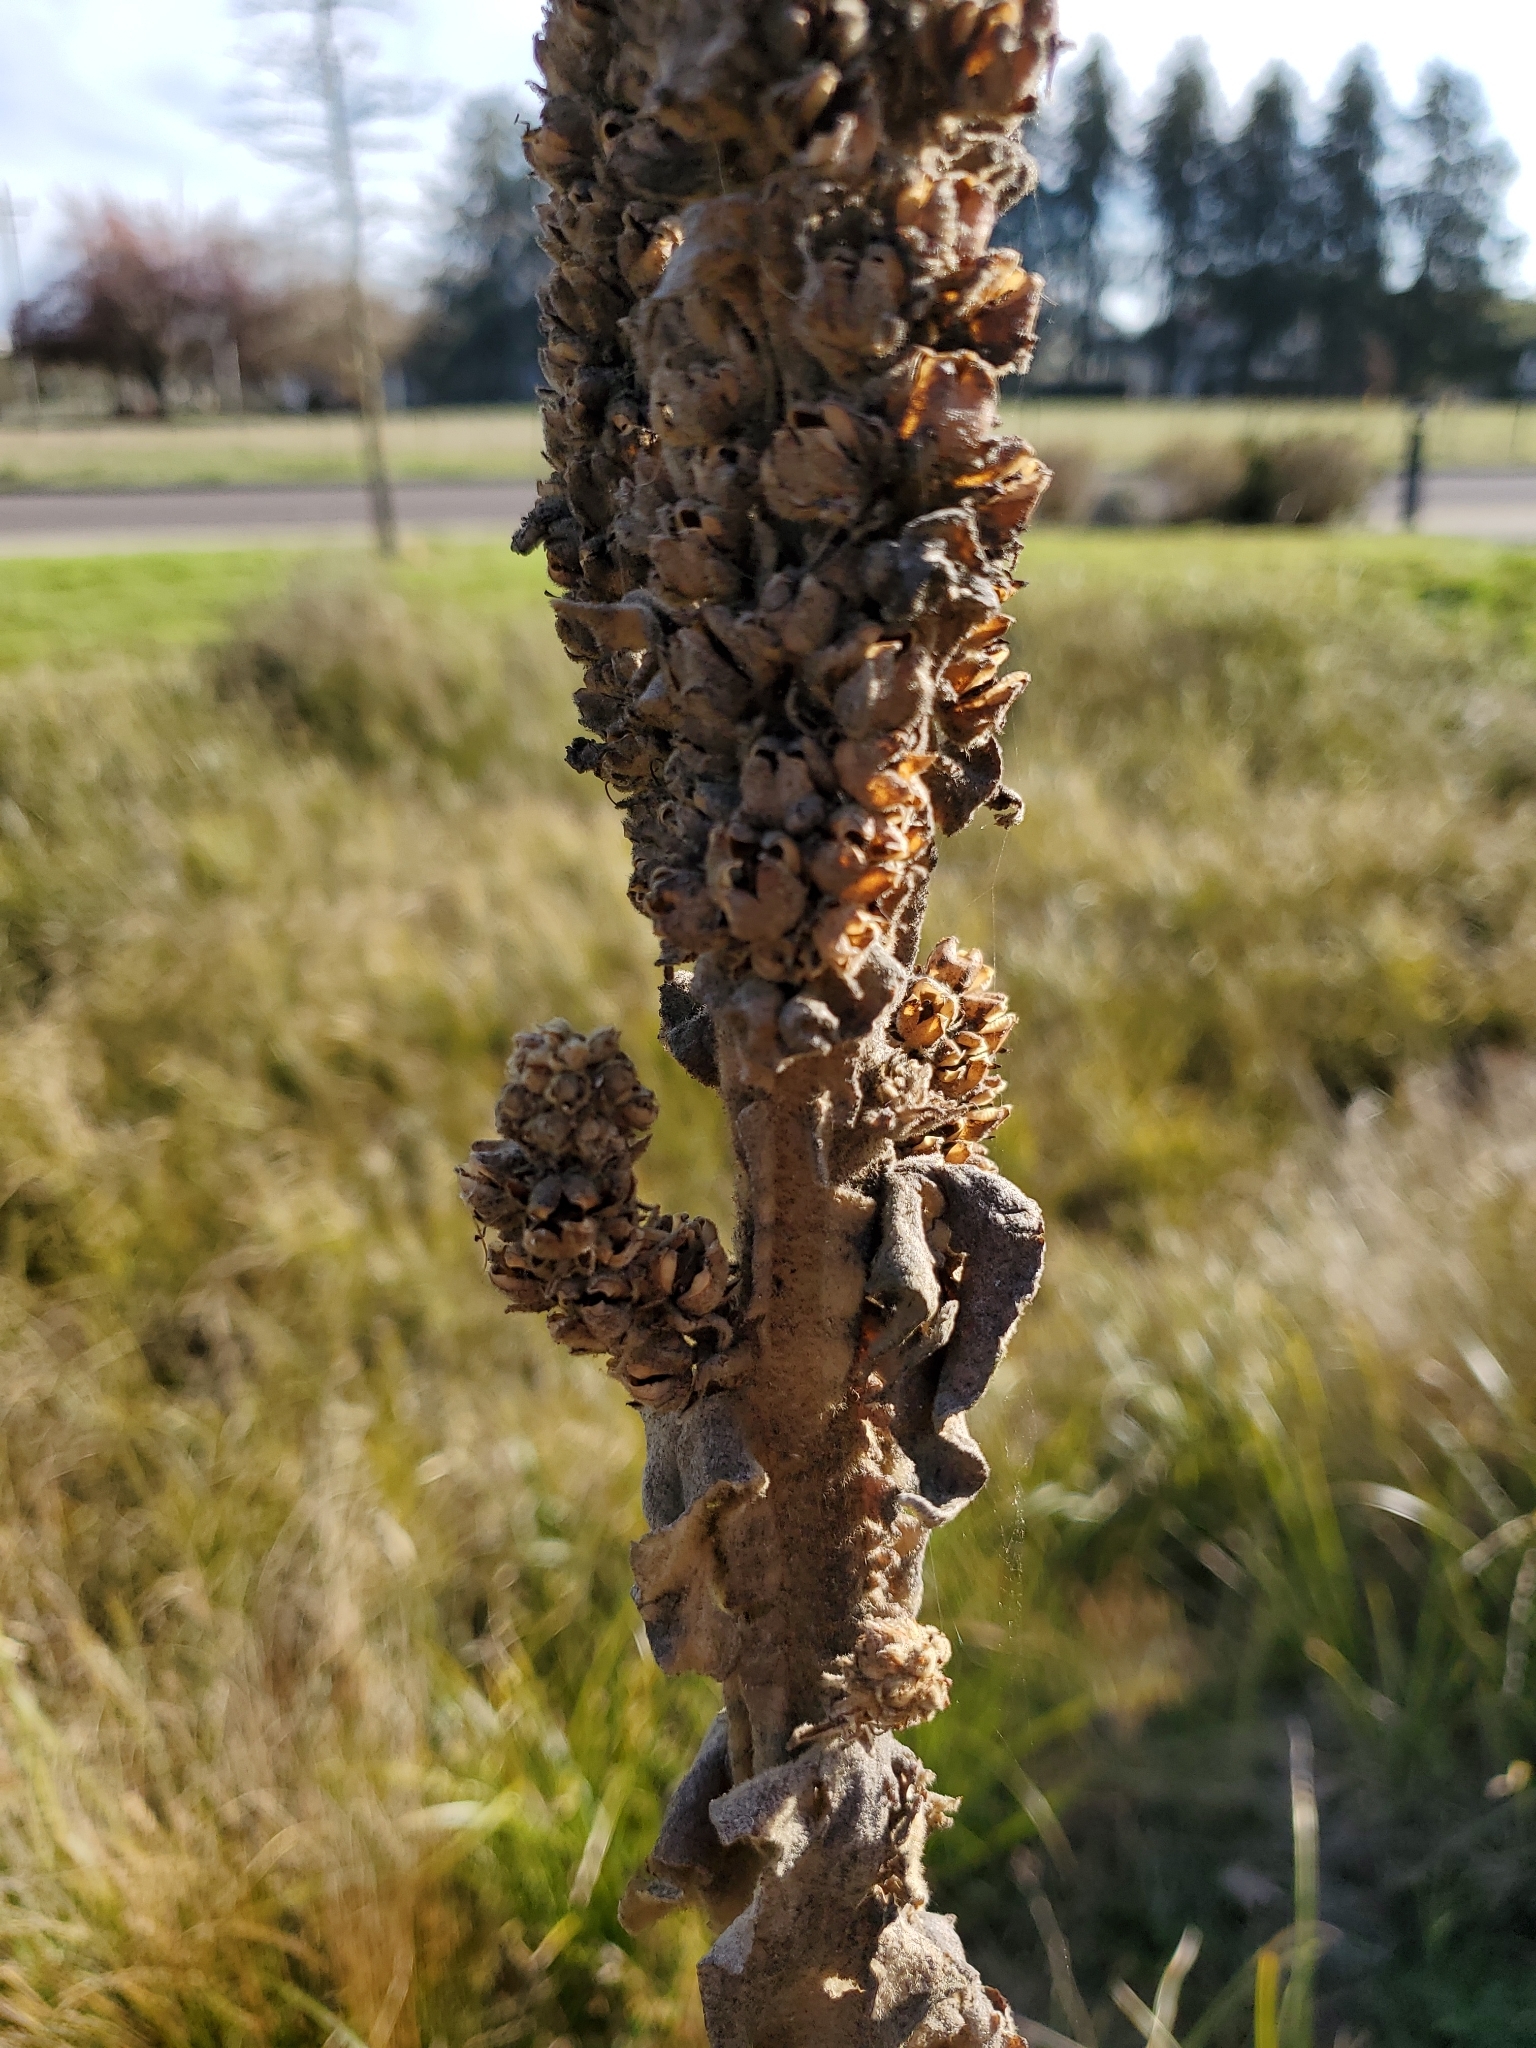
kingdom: Plantae
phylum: Tracheophyta
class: Magnoliopsida
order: Lamiales
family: Scrophulariaceae
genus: Verbascum
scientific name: Verbascum thapsus
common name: Common mullein
